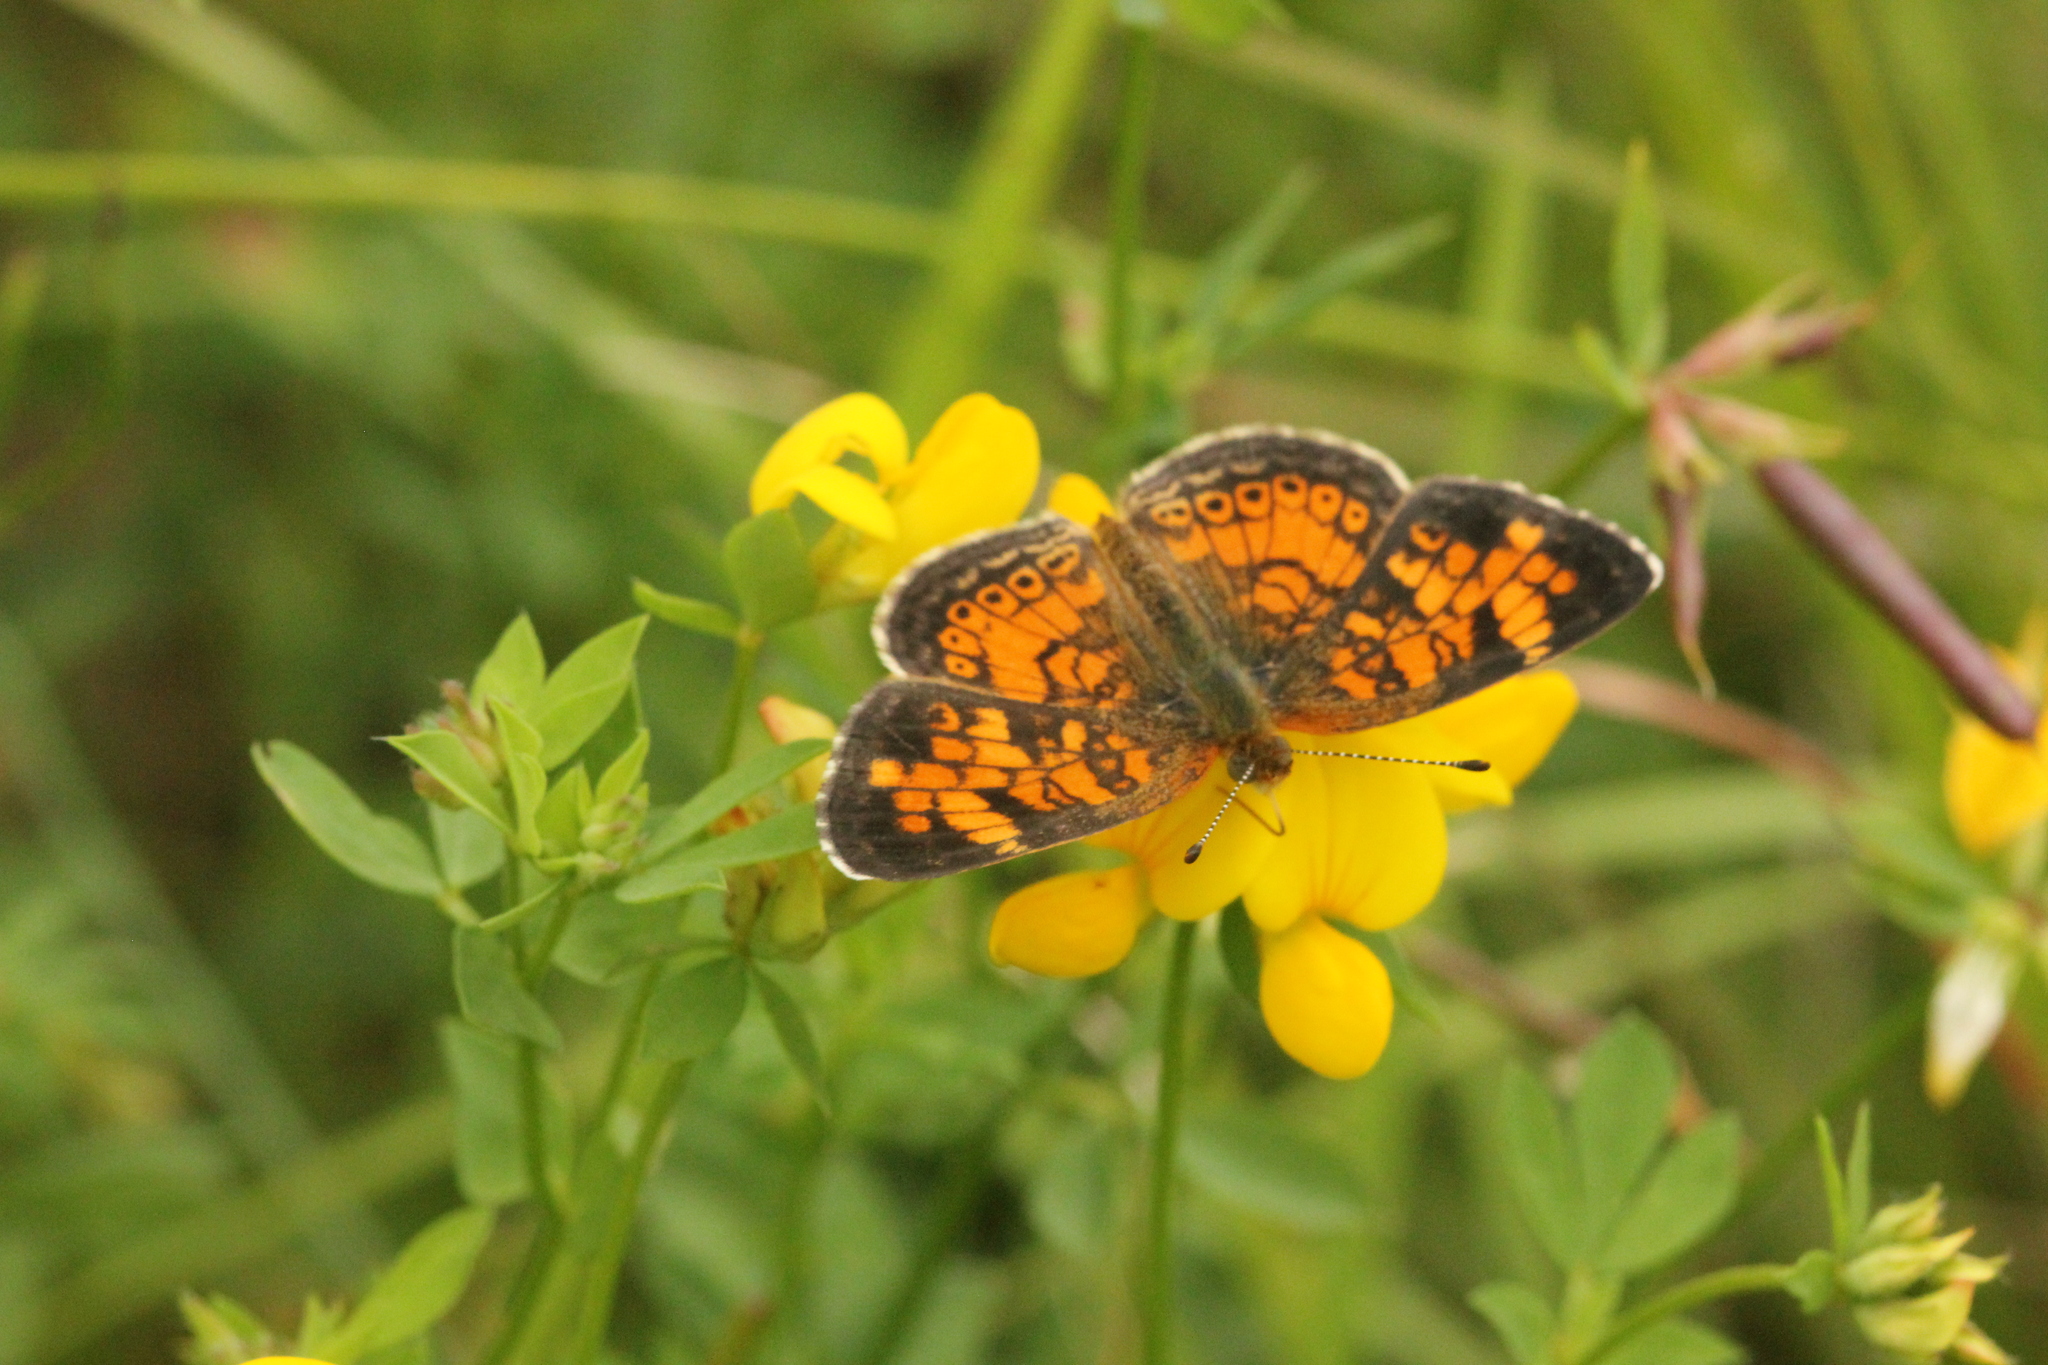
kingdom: Animalia
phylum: Arthropoda
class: Insecta
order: Lepidoptera
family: Nymphalidae
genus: Phyciodes
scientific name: Phyciodes tharos
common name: Pearl crescent
